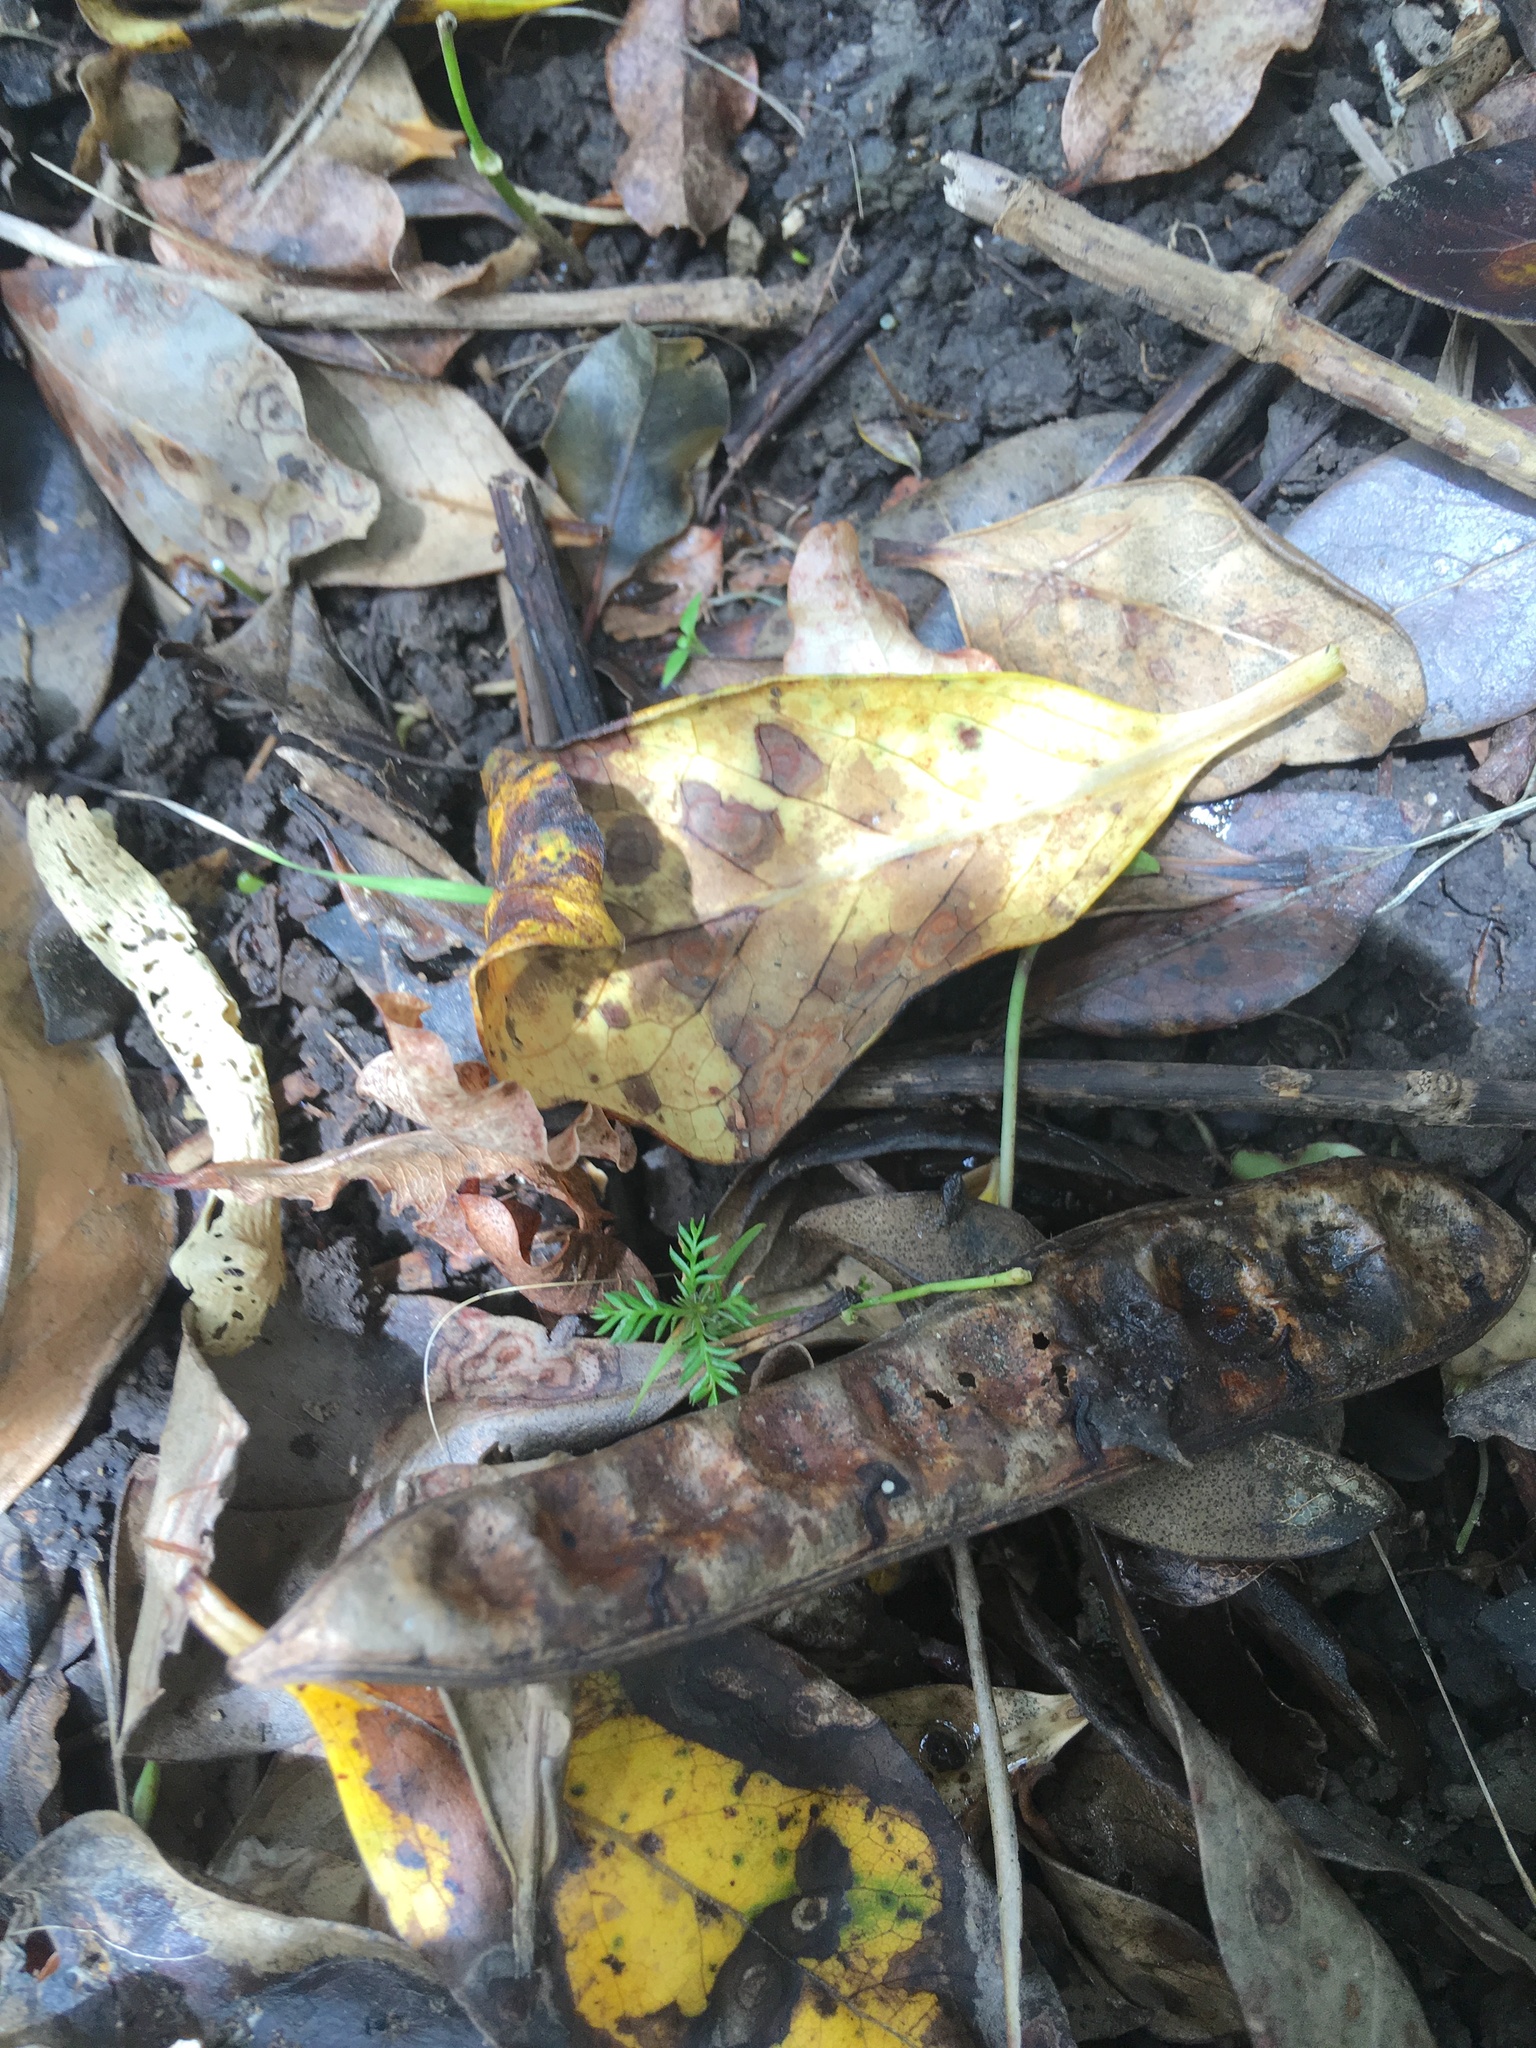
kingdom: Plantae
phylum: Tracheophyta
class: Pinopsida
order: Pinales
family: Podocarpaceae
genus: Dacrycarpus
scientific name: Dacrycarpus dacrydioides
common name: White pine
